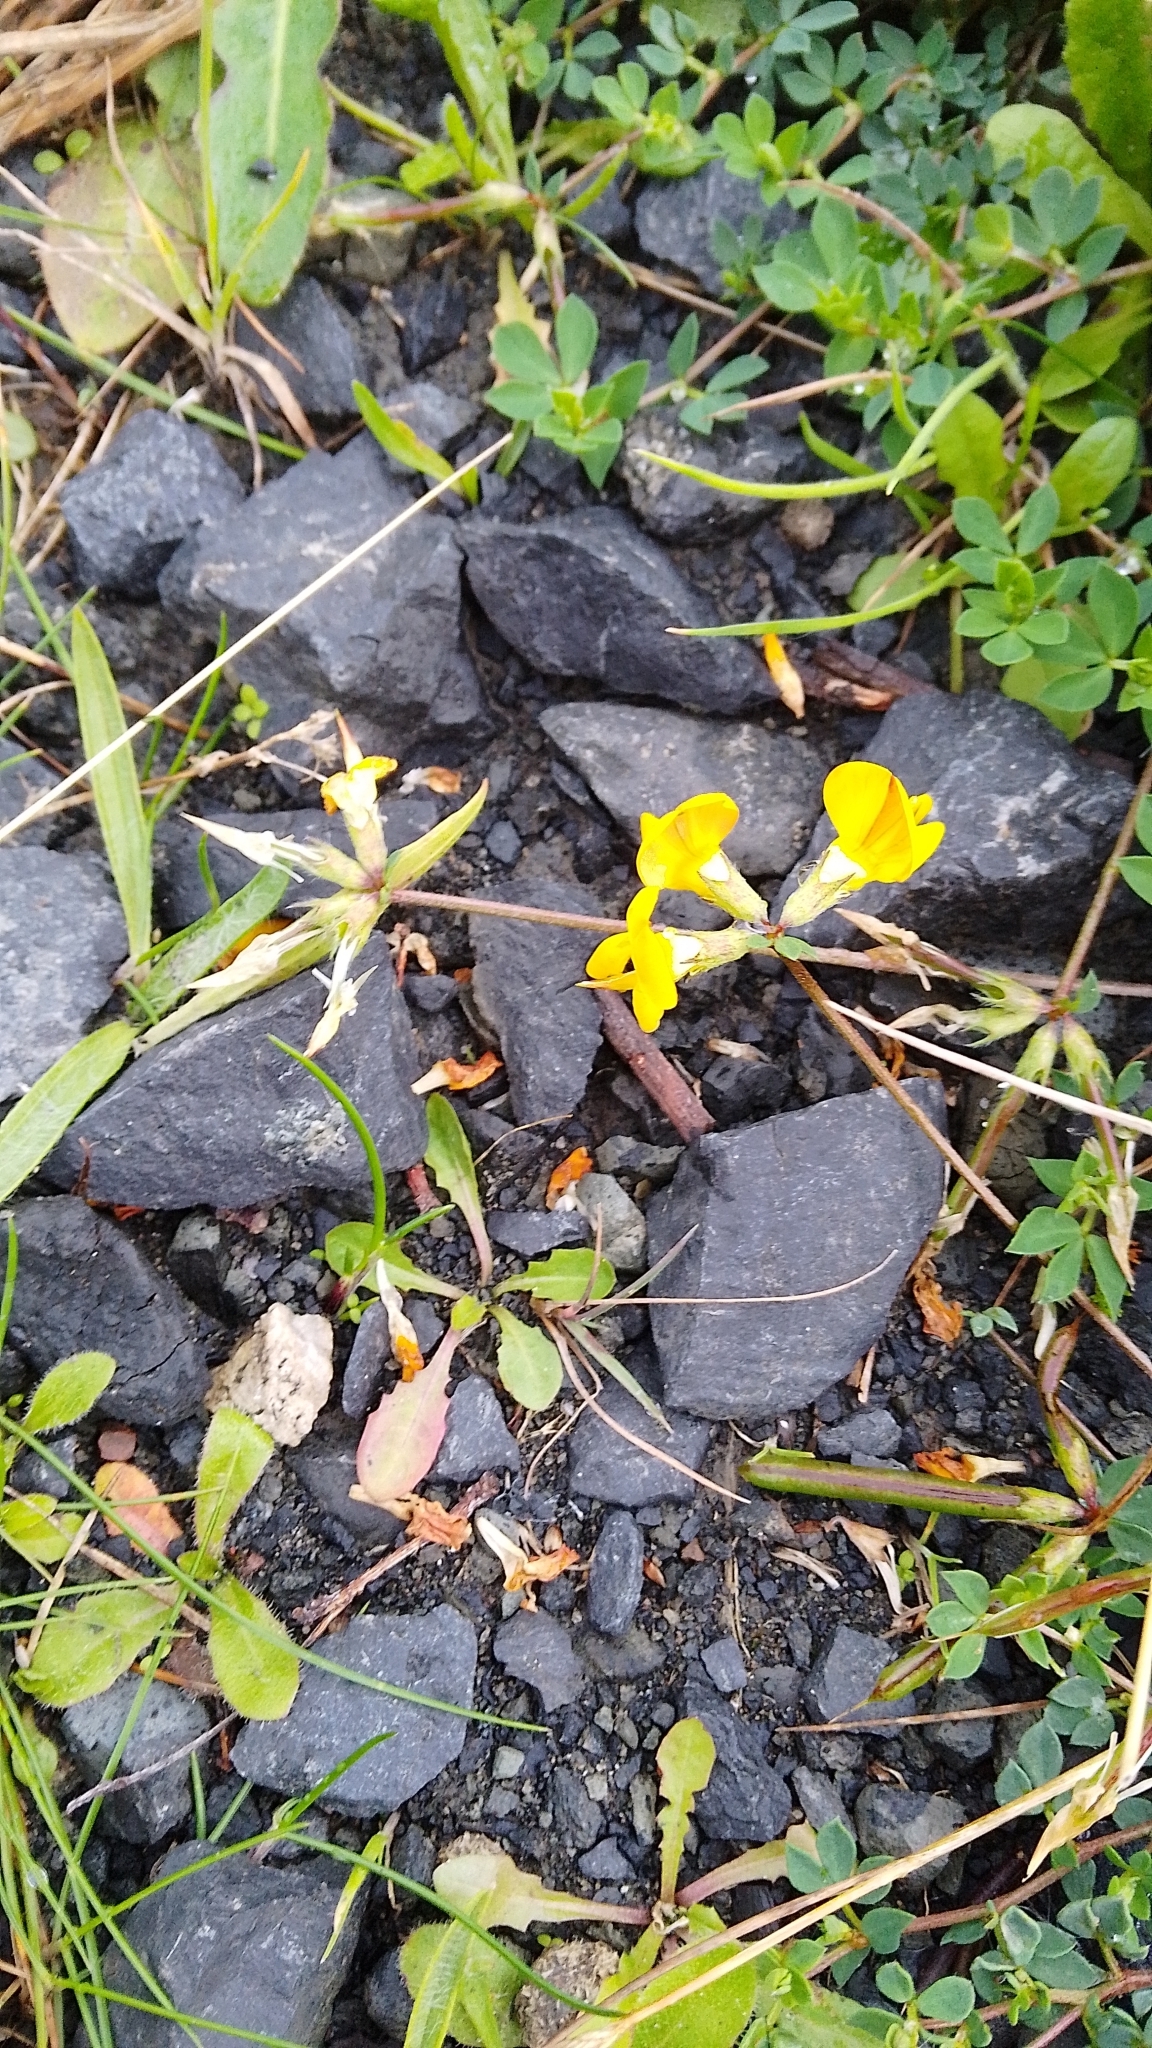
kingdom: Plantae
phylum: Tracheophyta
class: Magnoliopsida
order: Fabales
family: Fabaceae
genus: Lotus
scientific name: Lotus corniculatus
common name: Common bird's-foot-trefoil
